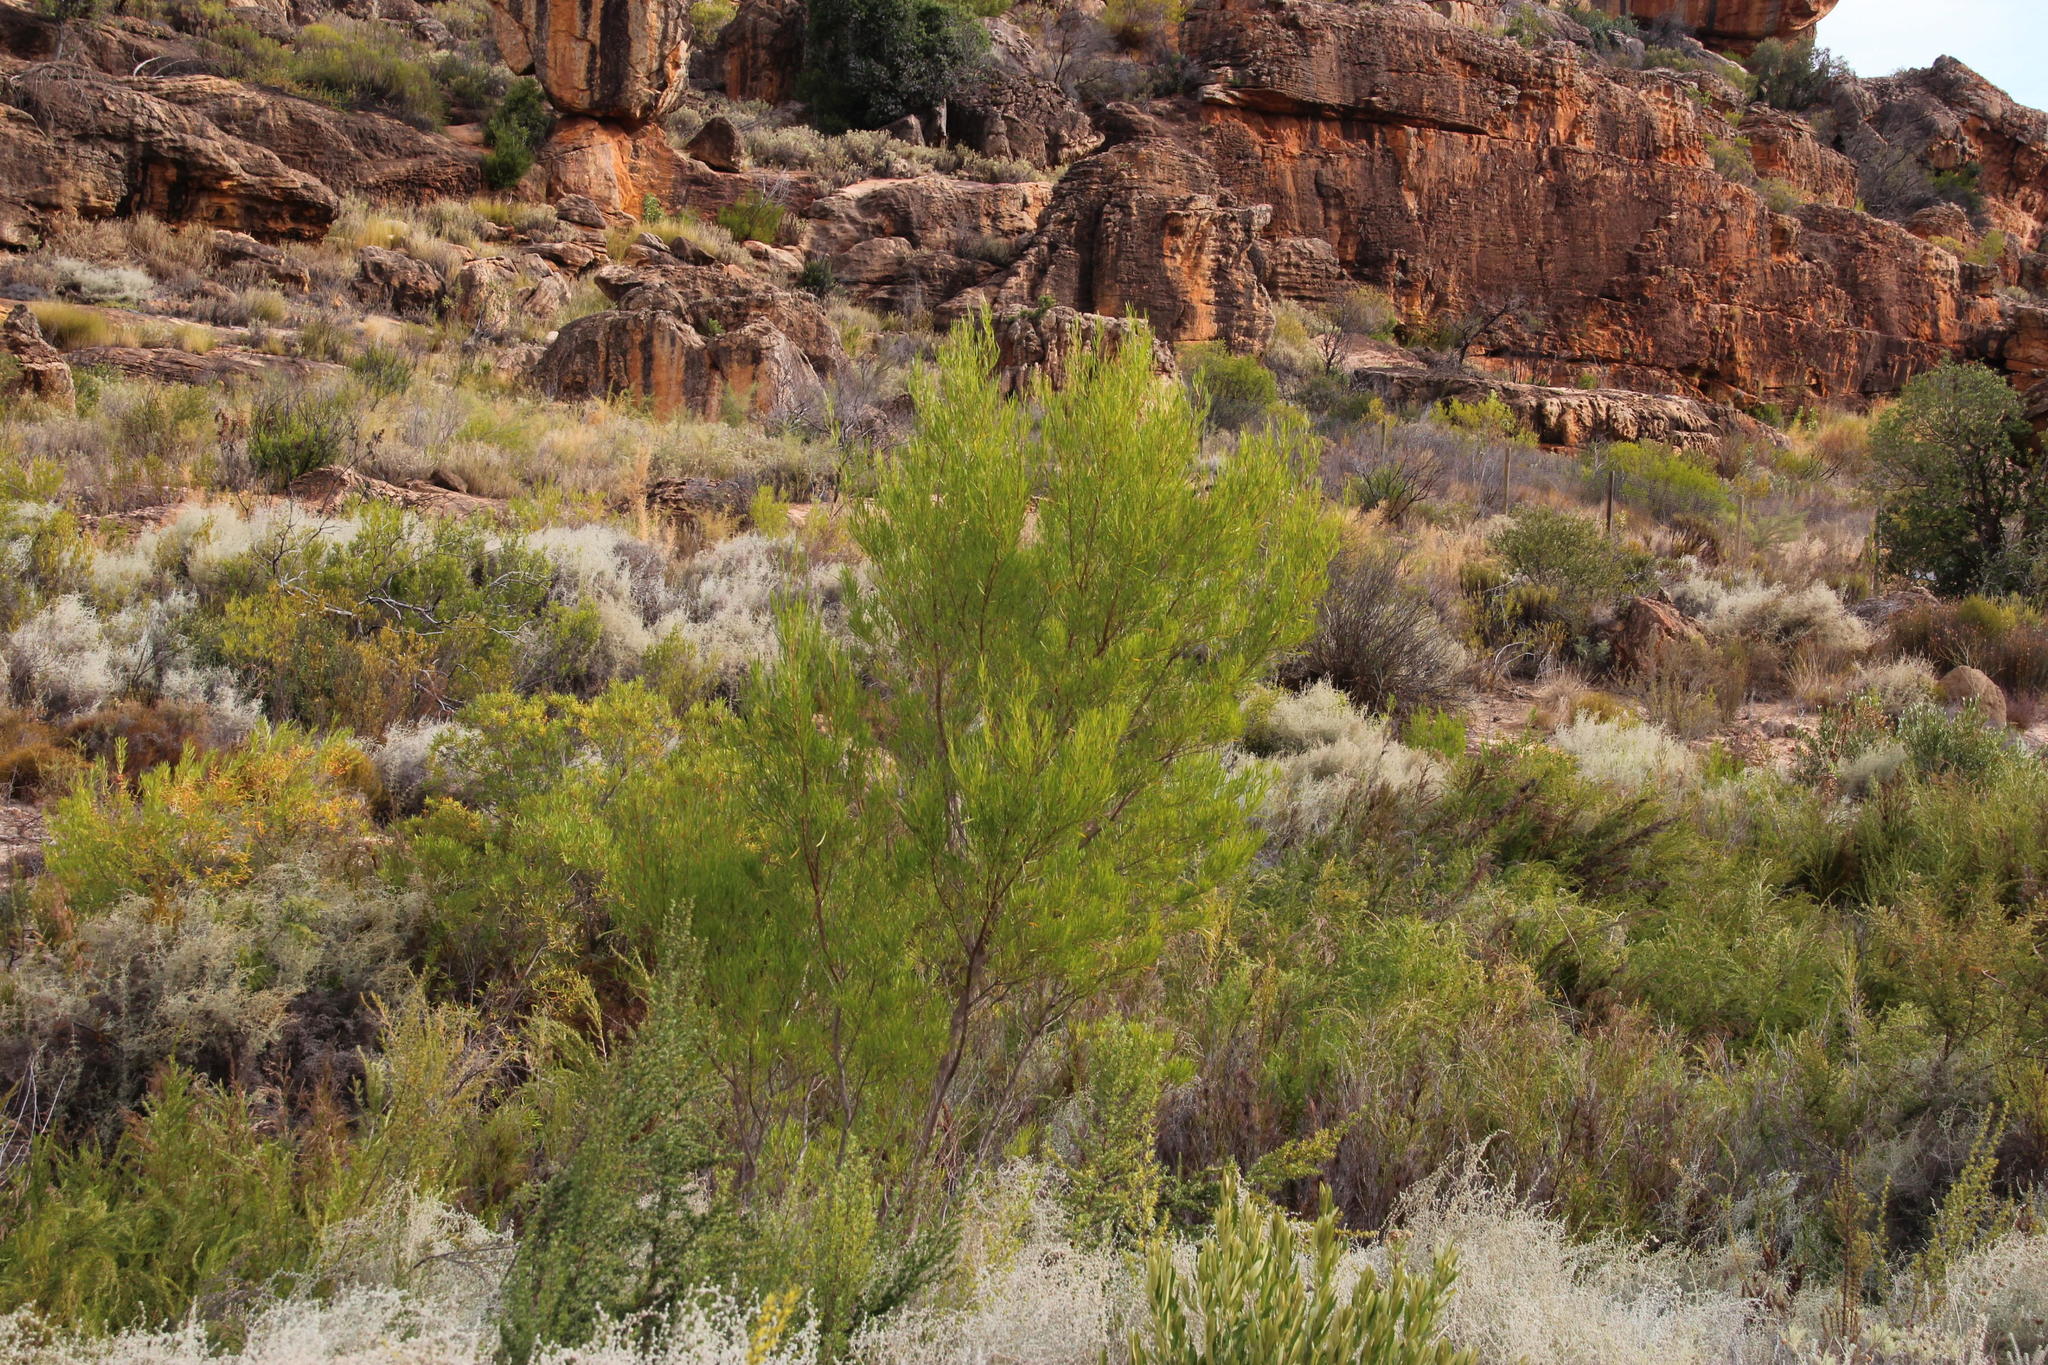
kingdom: Plantae
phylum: Tracheophyta
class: Magnoliopsida
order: Sapindales
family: Sapindaceae
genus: Dodonaea
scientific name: Dodonaea viscosa
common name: Hopbush
